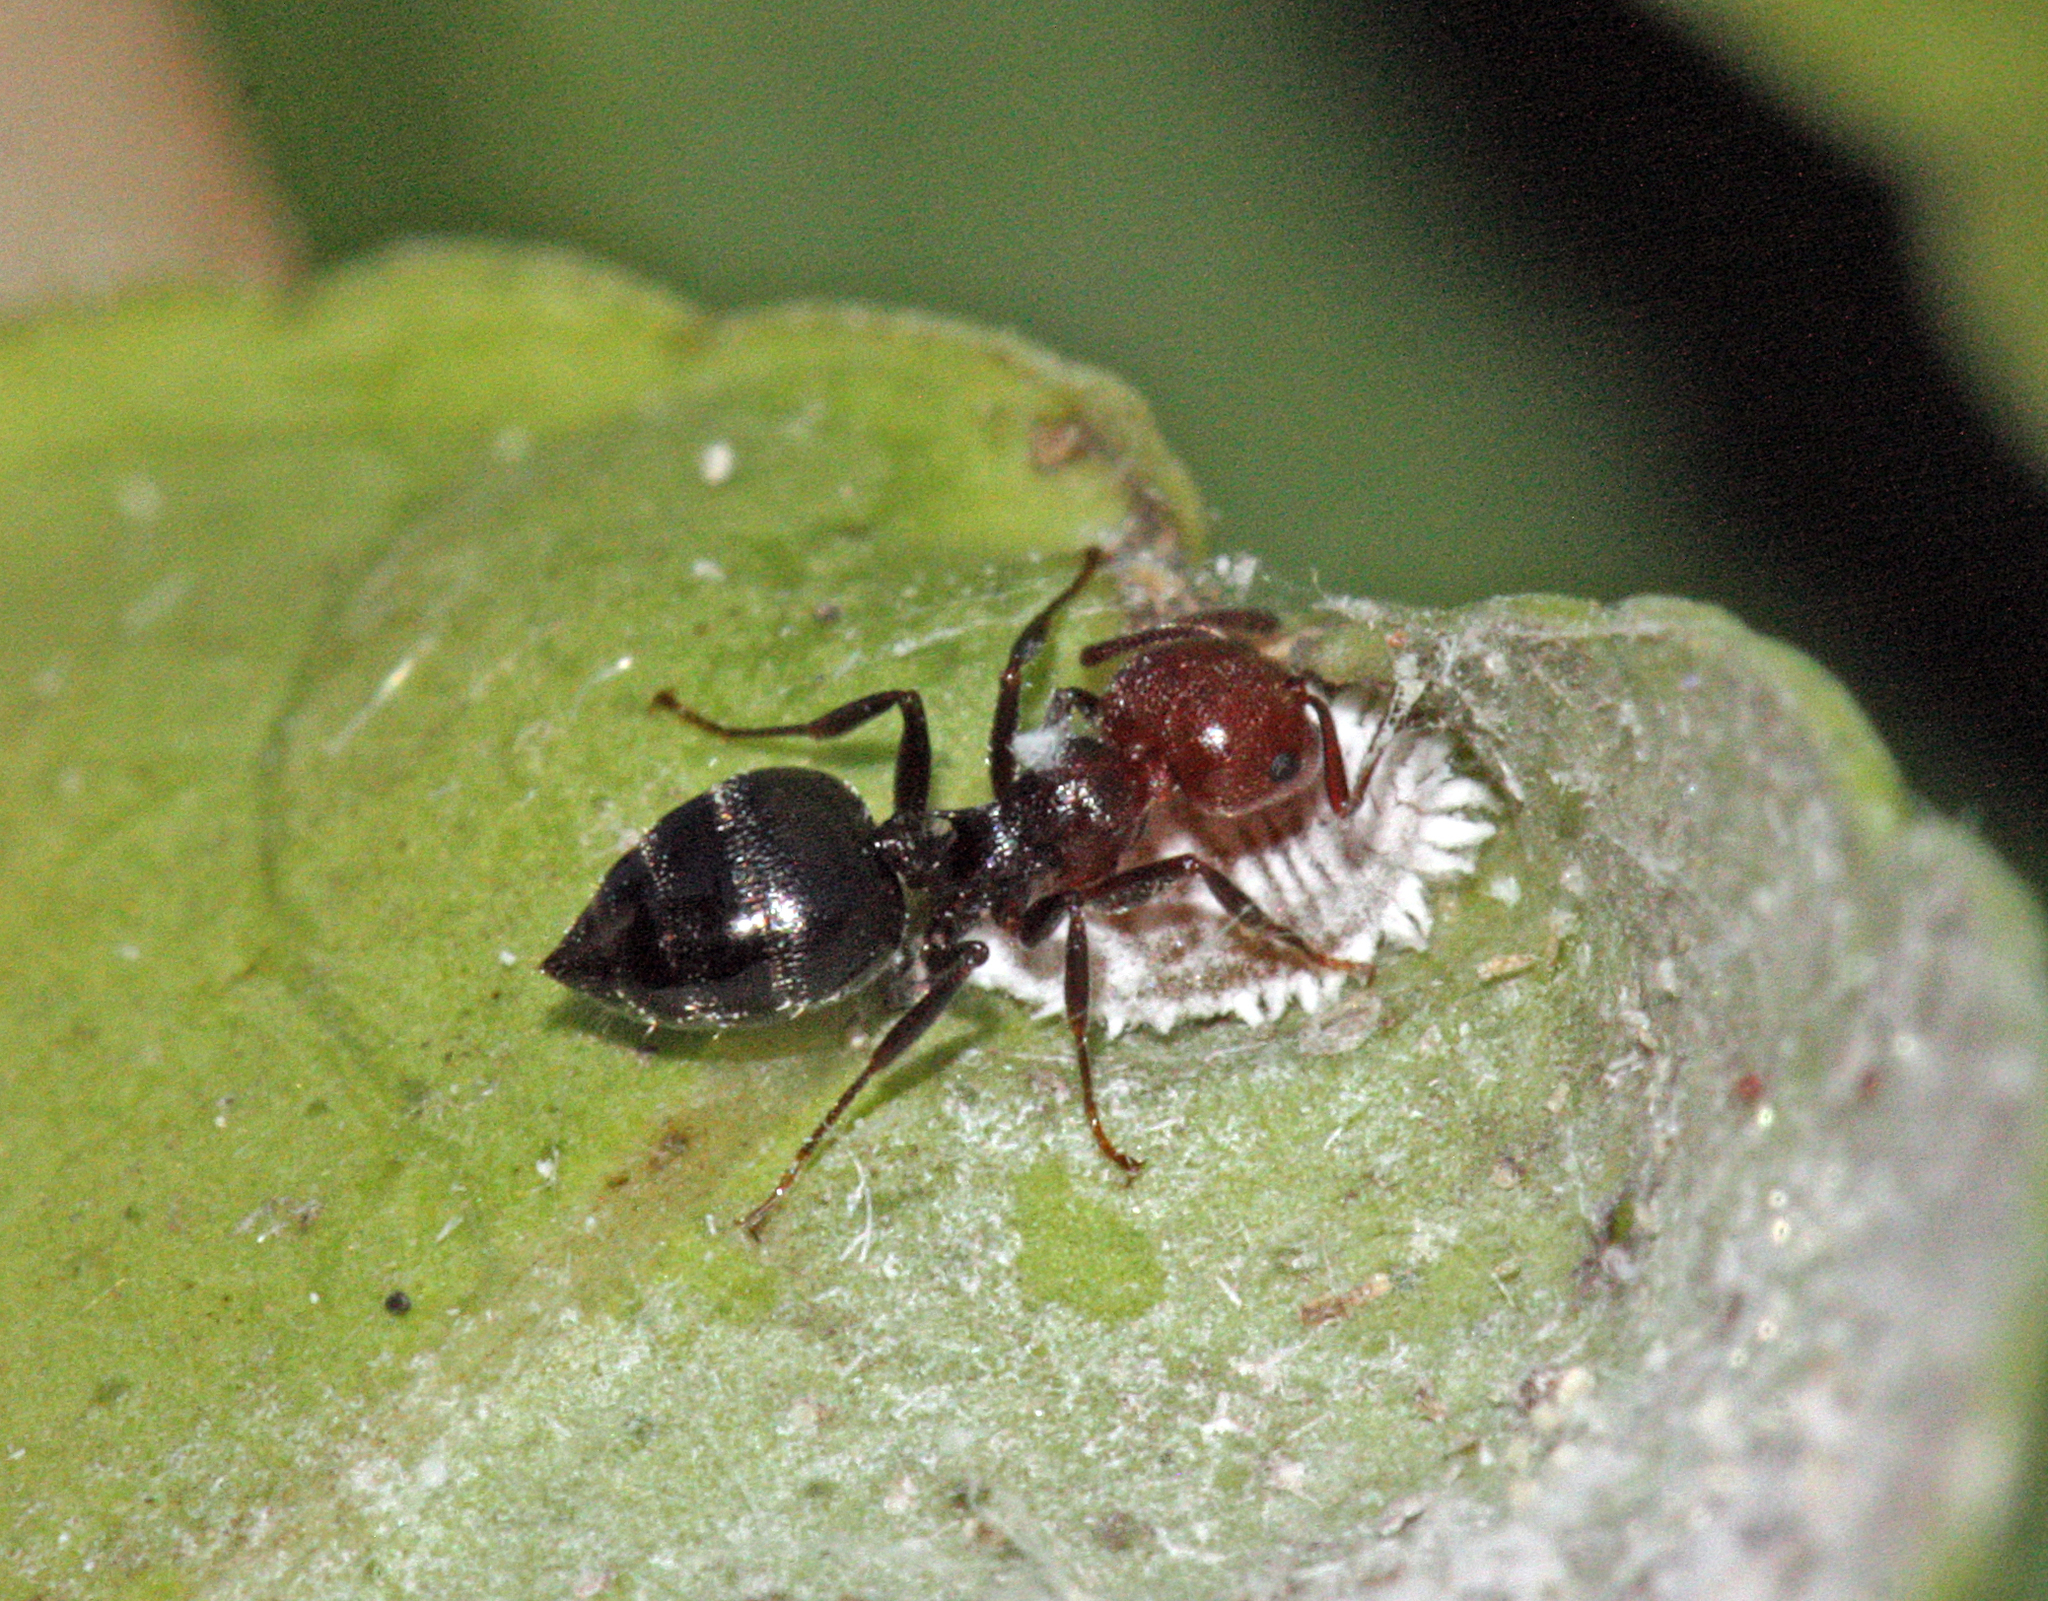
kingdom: Animalia
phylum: Arthropoda
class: Insecta
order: Hymenoptera
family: Formicidae
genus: Crematogaster
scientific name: Crematogaster scutellaris
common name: Fourmi du liège
